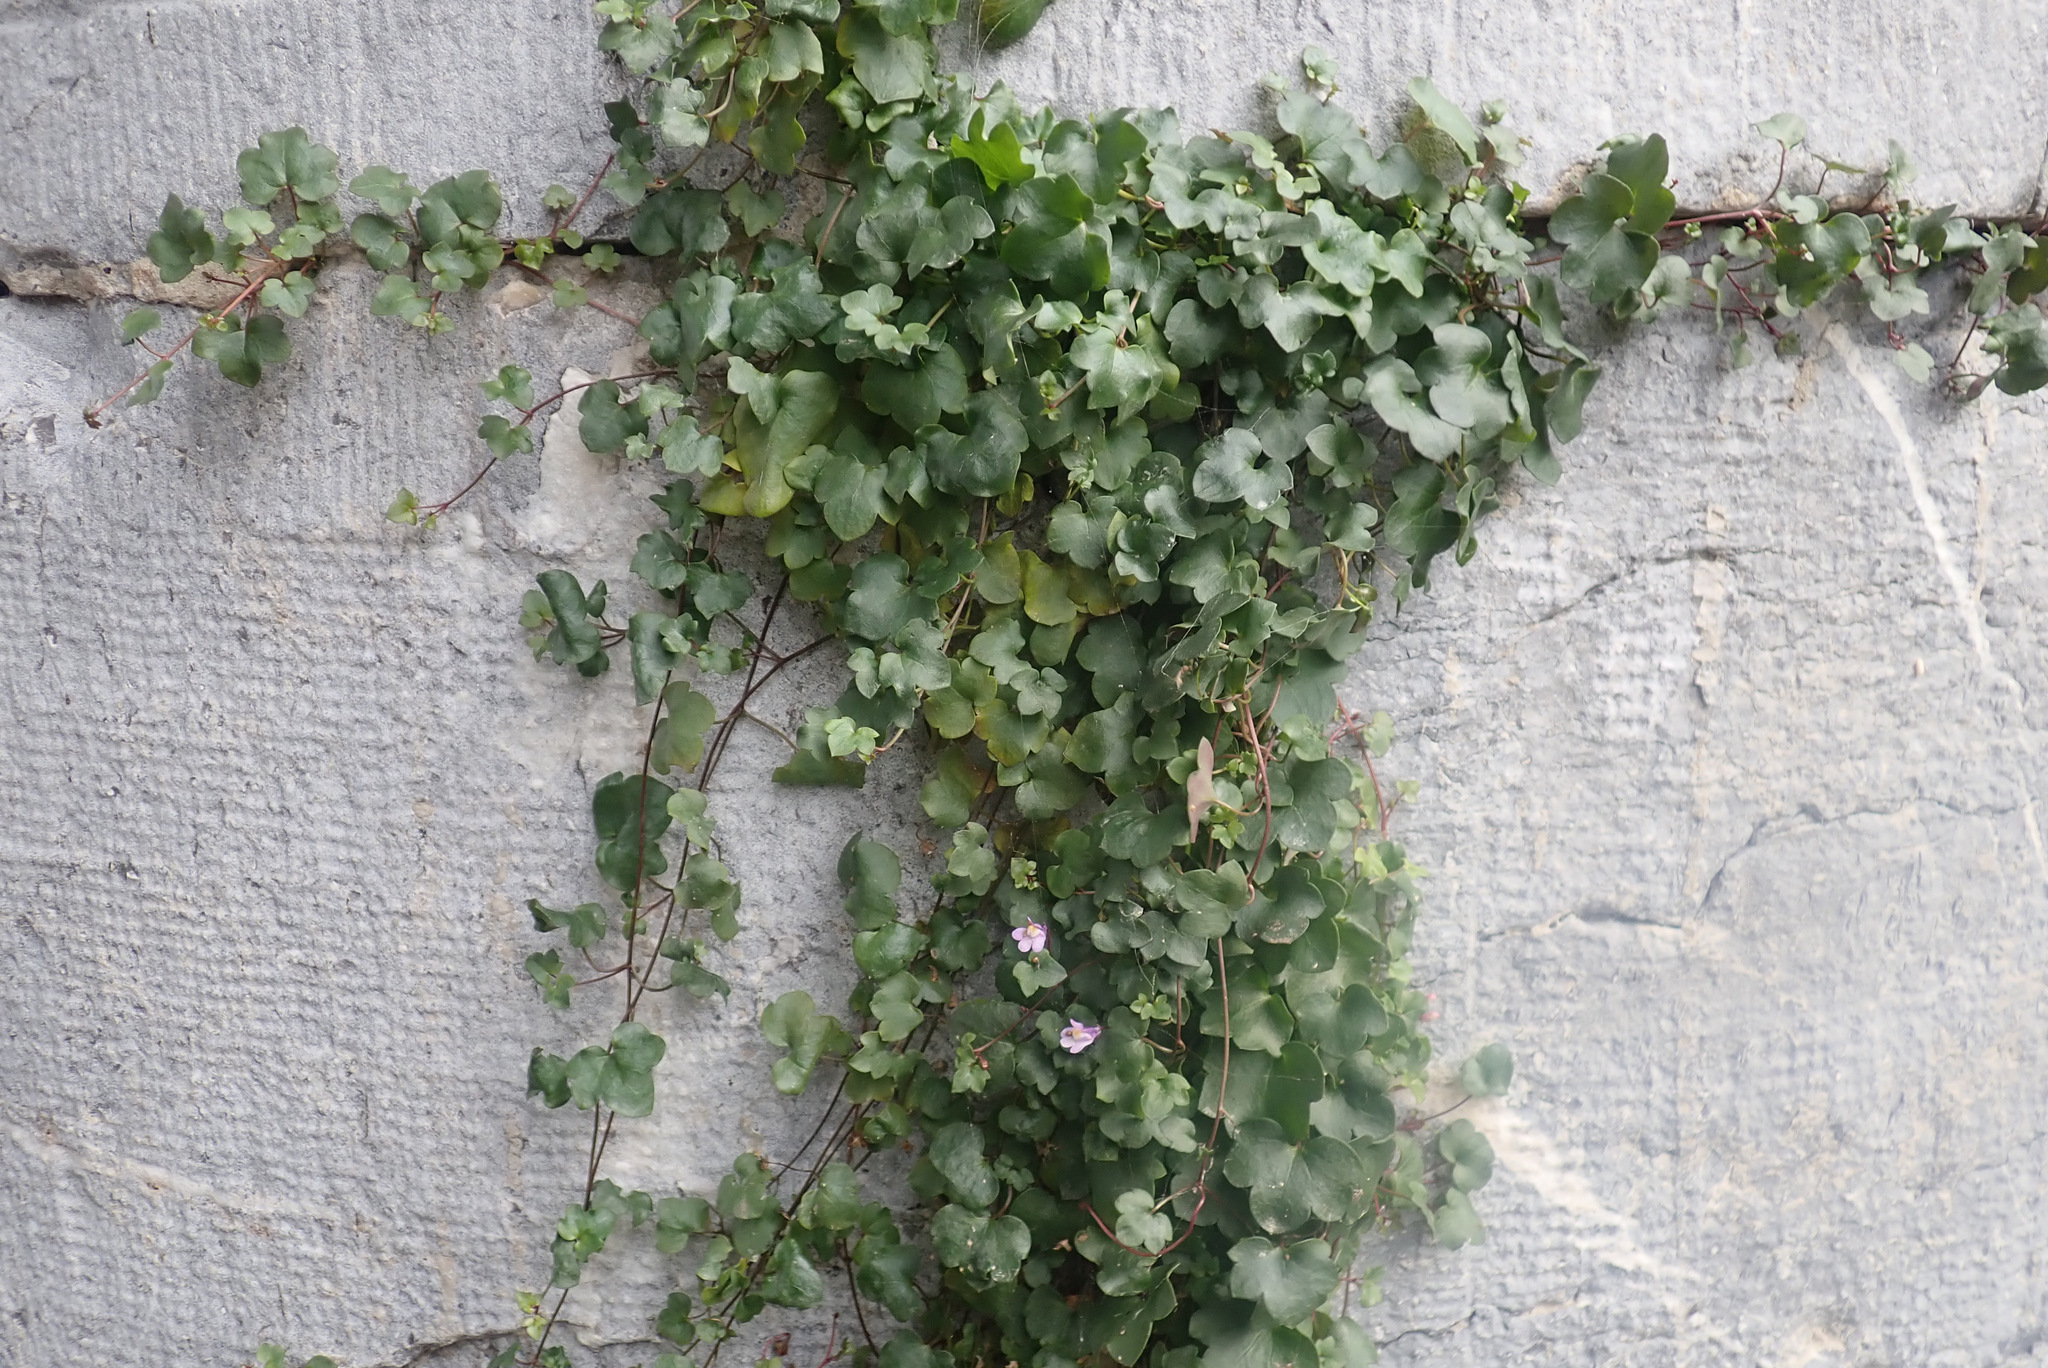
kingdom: Plantae
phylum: Tracheophyta
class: Magnoliopsida
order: Lamiales
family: Plantaginaceae
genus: Cymbalaria
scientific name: Cymbalaria muralis
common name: Ivy-leaved toadflax
